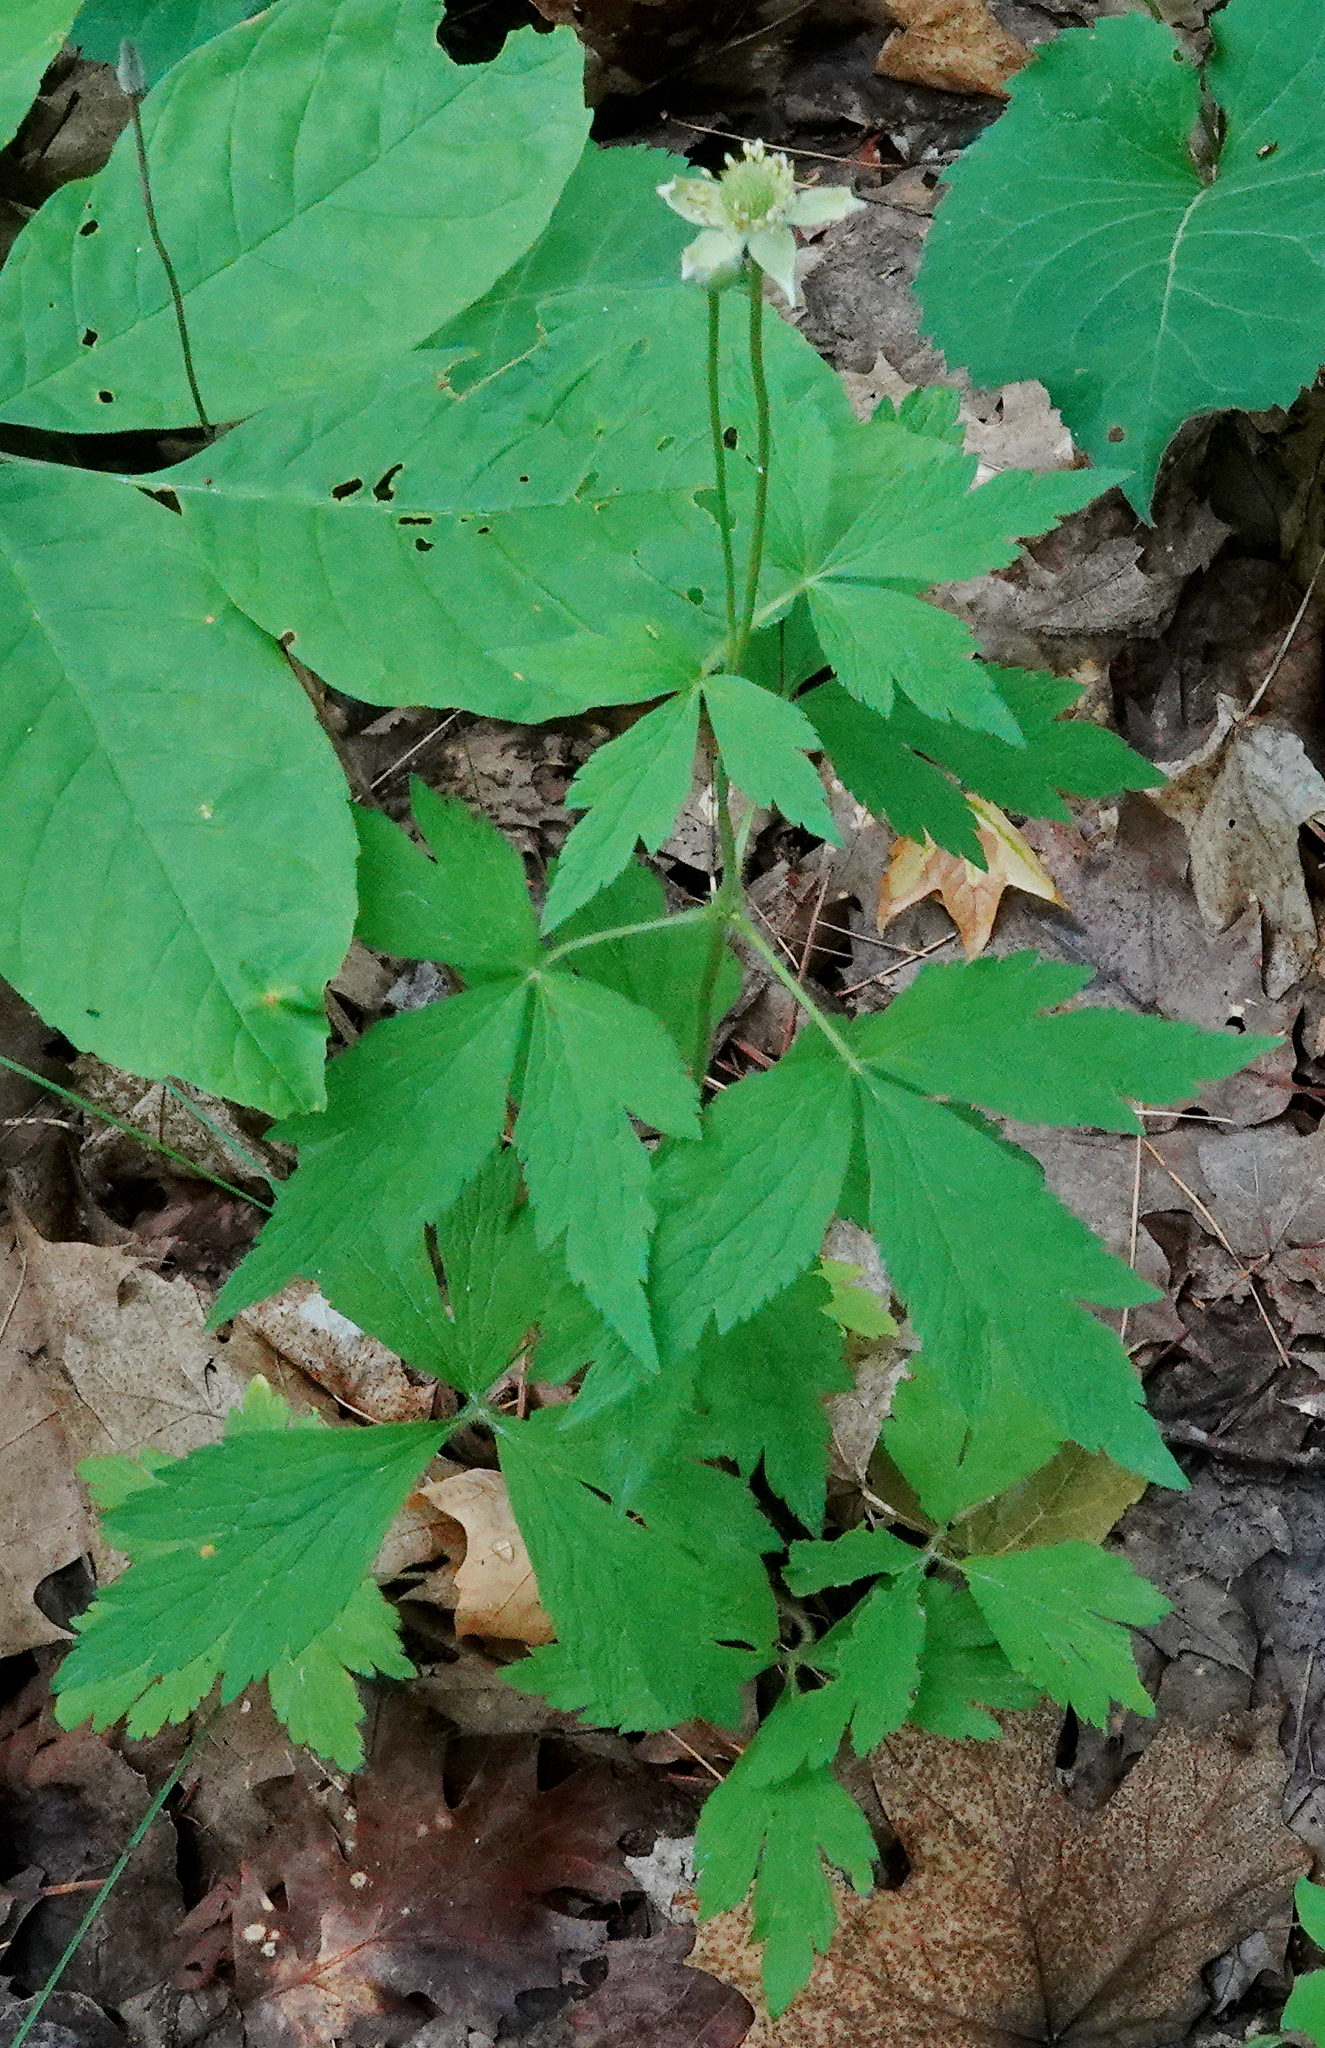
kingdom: Plantae
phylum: Tracheophyta
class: Magnoliopsida
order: Ranunculales
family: Ranunculaceae
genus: Anemone
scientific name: Anemone virginiana
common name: Tall anemone
